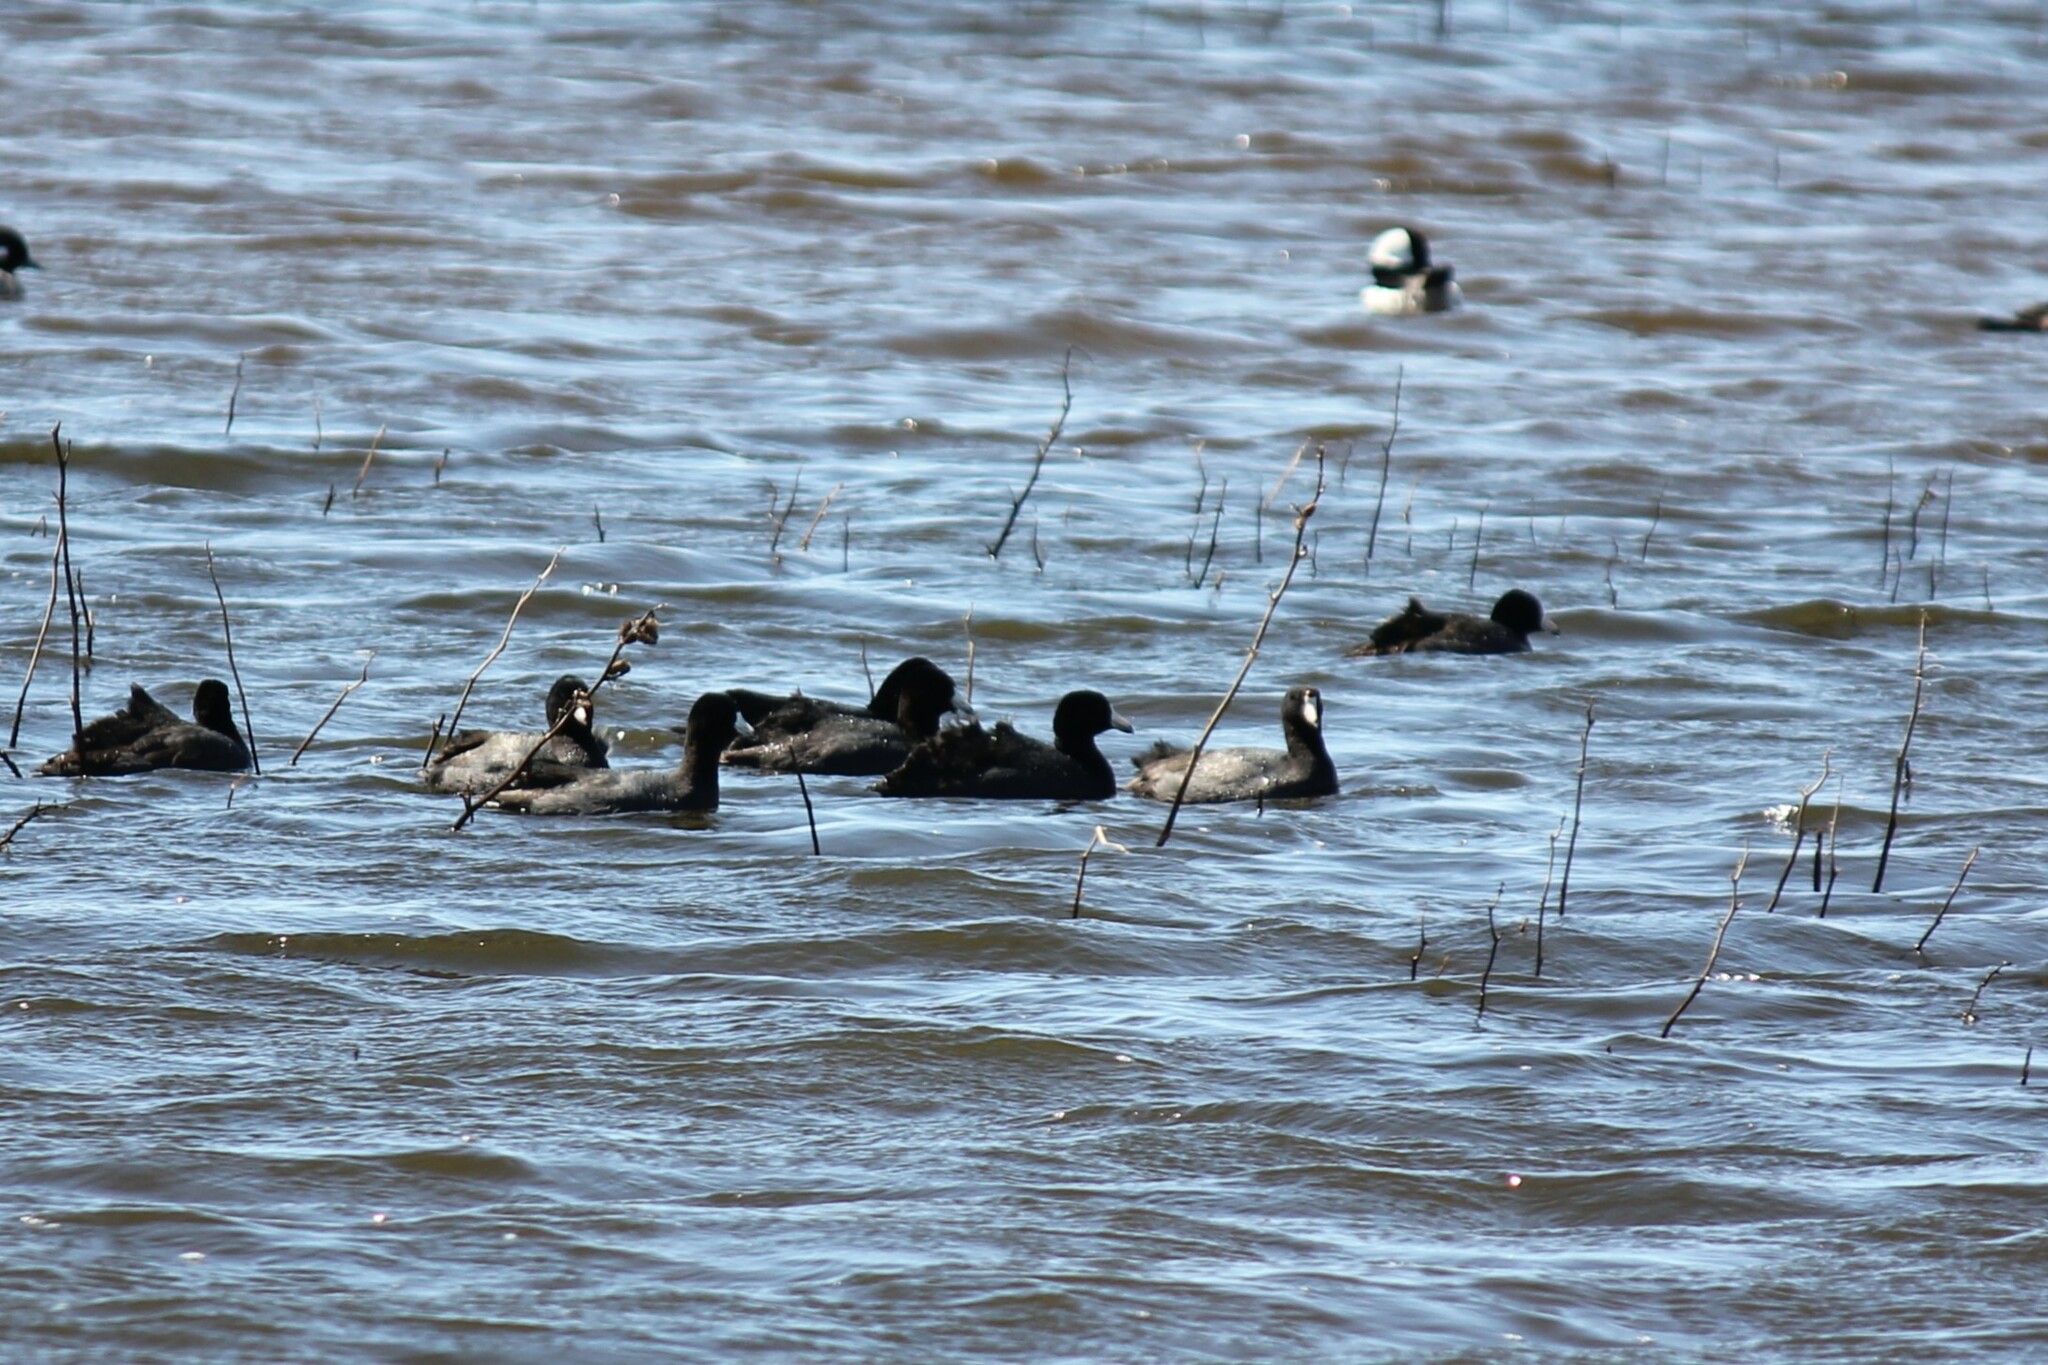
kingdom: Animalia
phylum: Chordata
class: Aves
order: Gruiformes
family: Rallidae
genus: Fulica
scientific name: Fulica americana
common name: American coot
